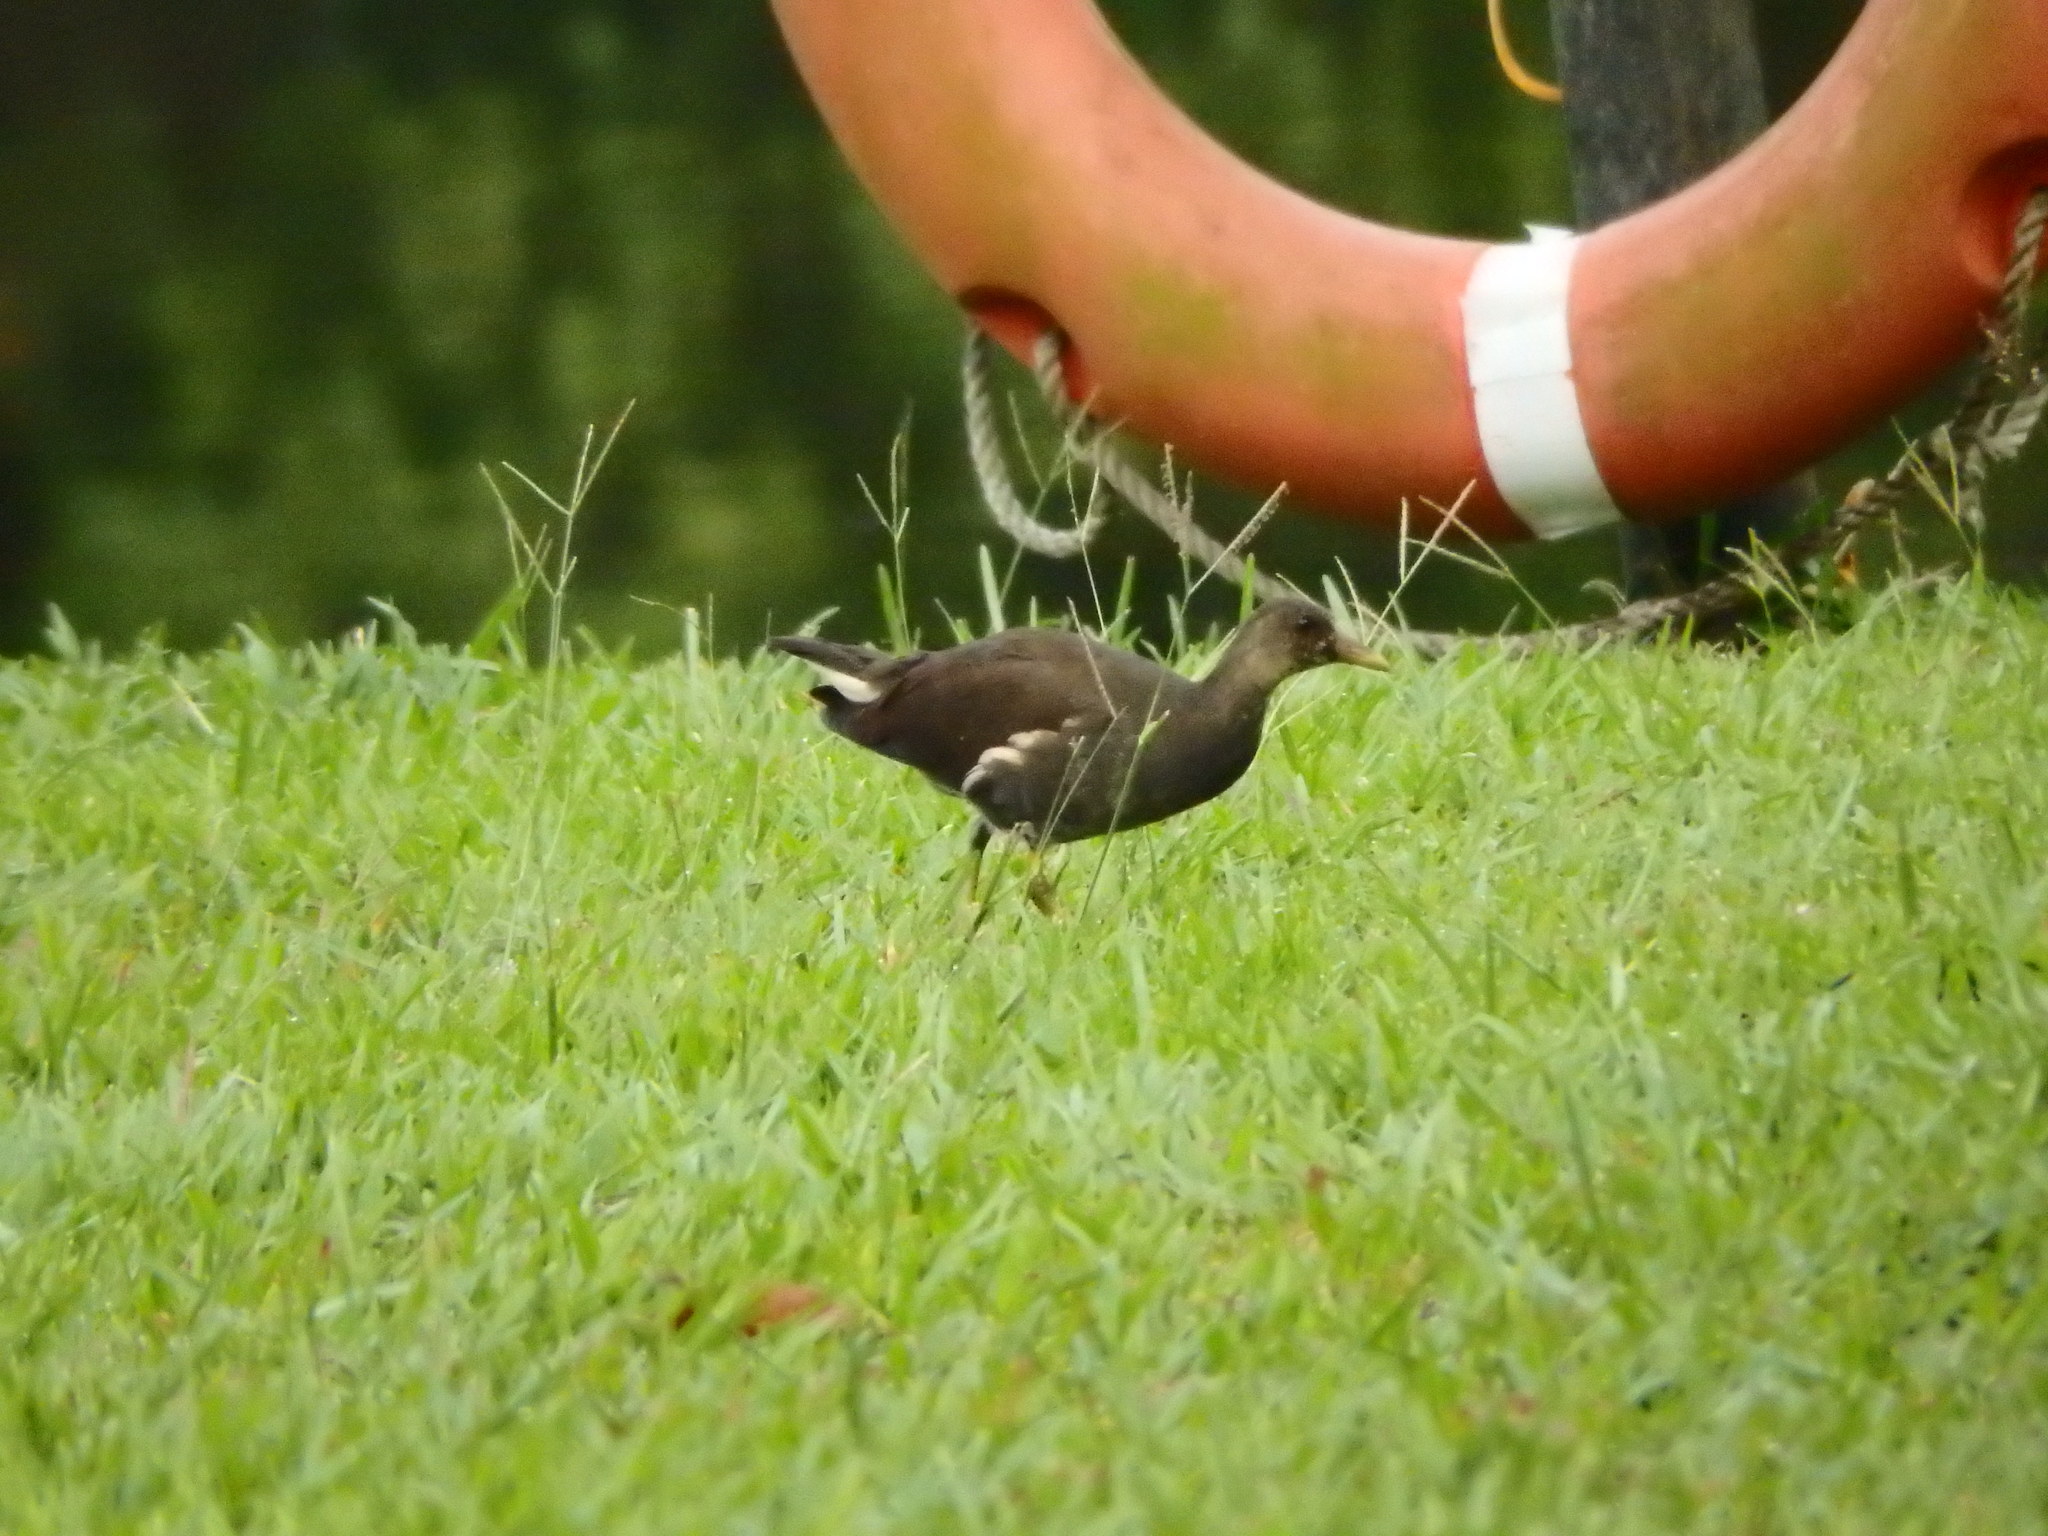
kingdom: Animalia
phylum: Chordata
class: Aves
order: Gruiformes
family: Rallidae
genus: Gallinula
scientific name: Gallinula chloropus
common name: Common moorhen
